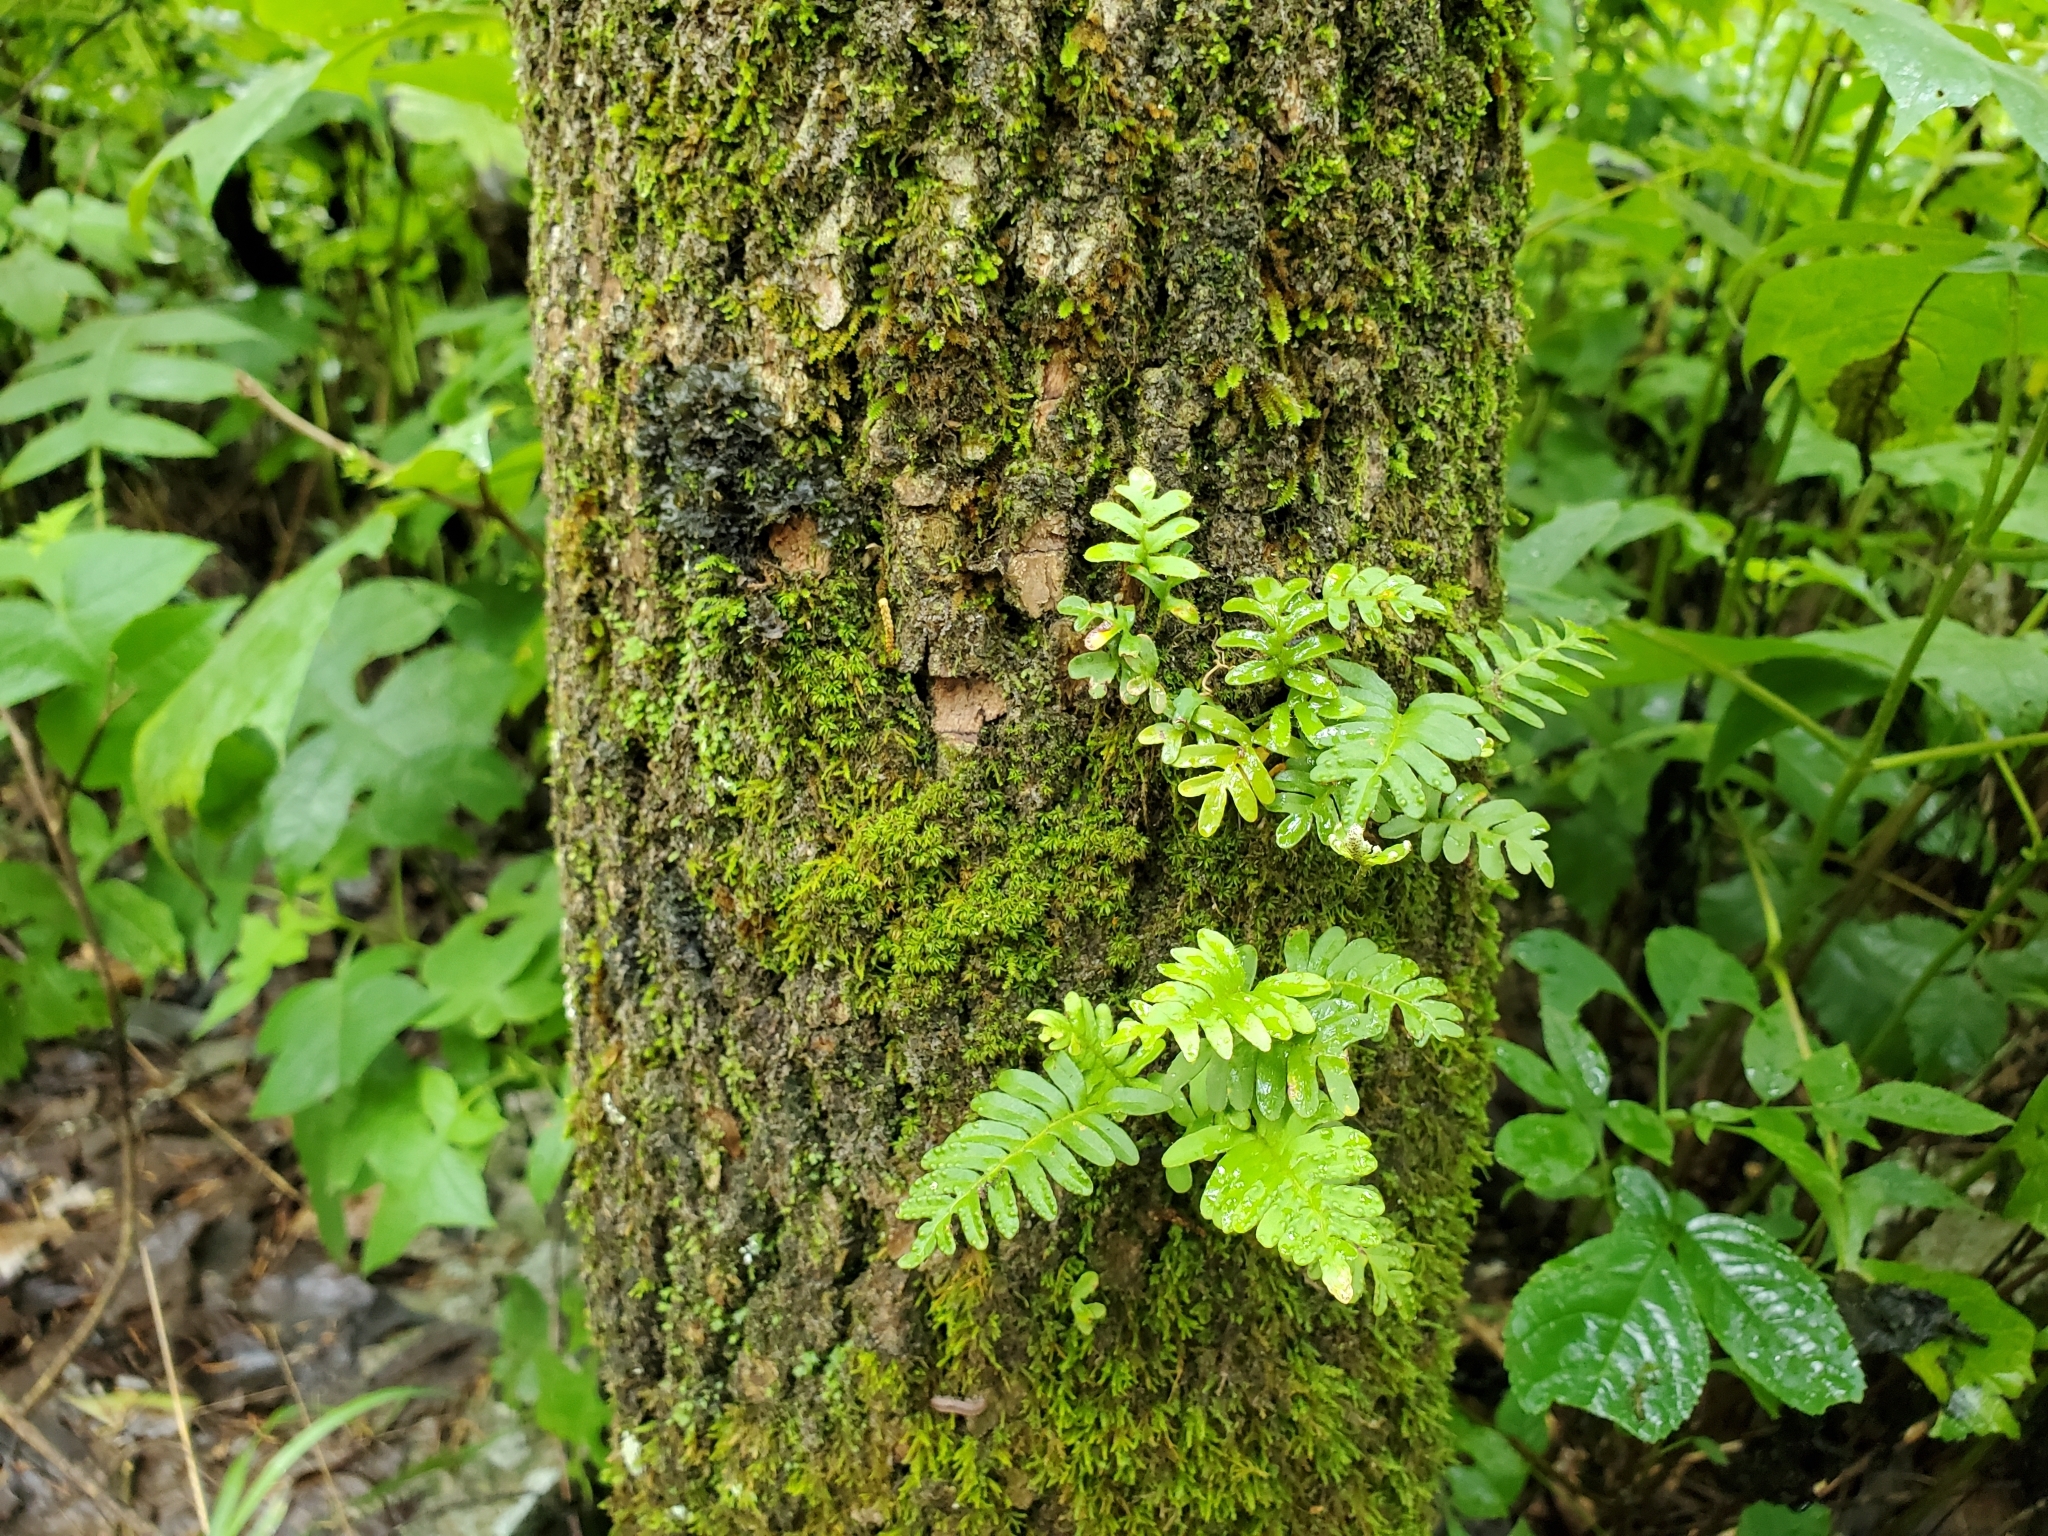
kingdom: Plantae
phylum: Tracheophyta
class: Polypodiopsida
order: Polypodiales
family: Polypodiaceae
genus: Pleopeltis
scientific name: Pleopeltis michauxiana
